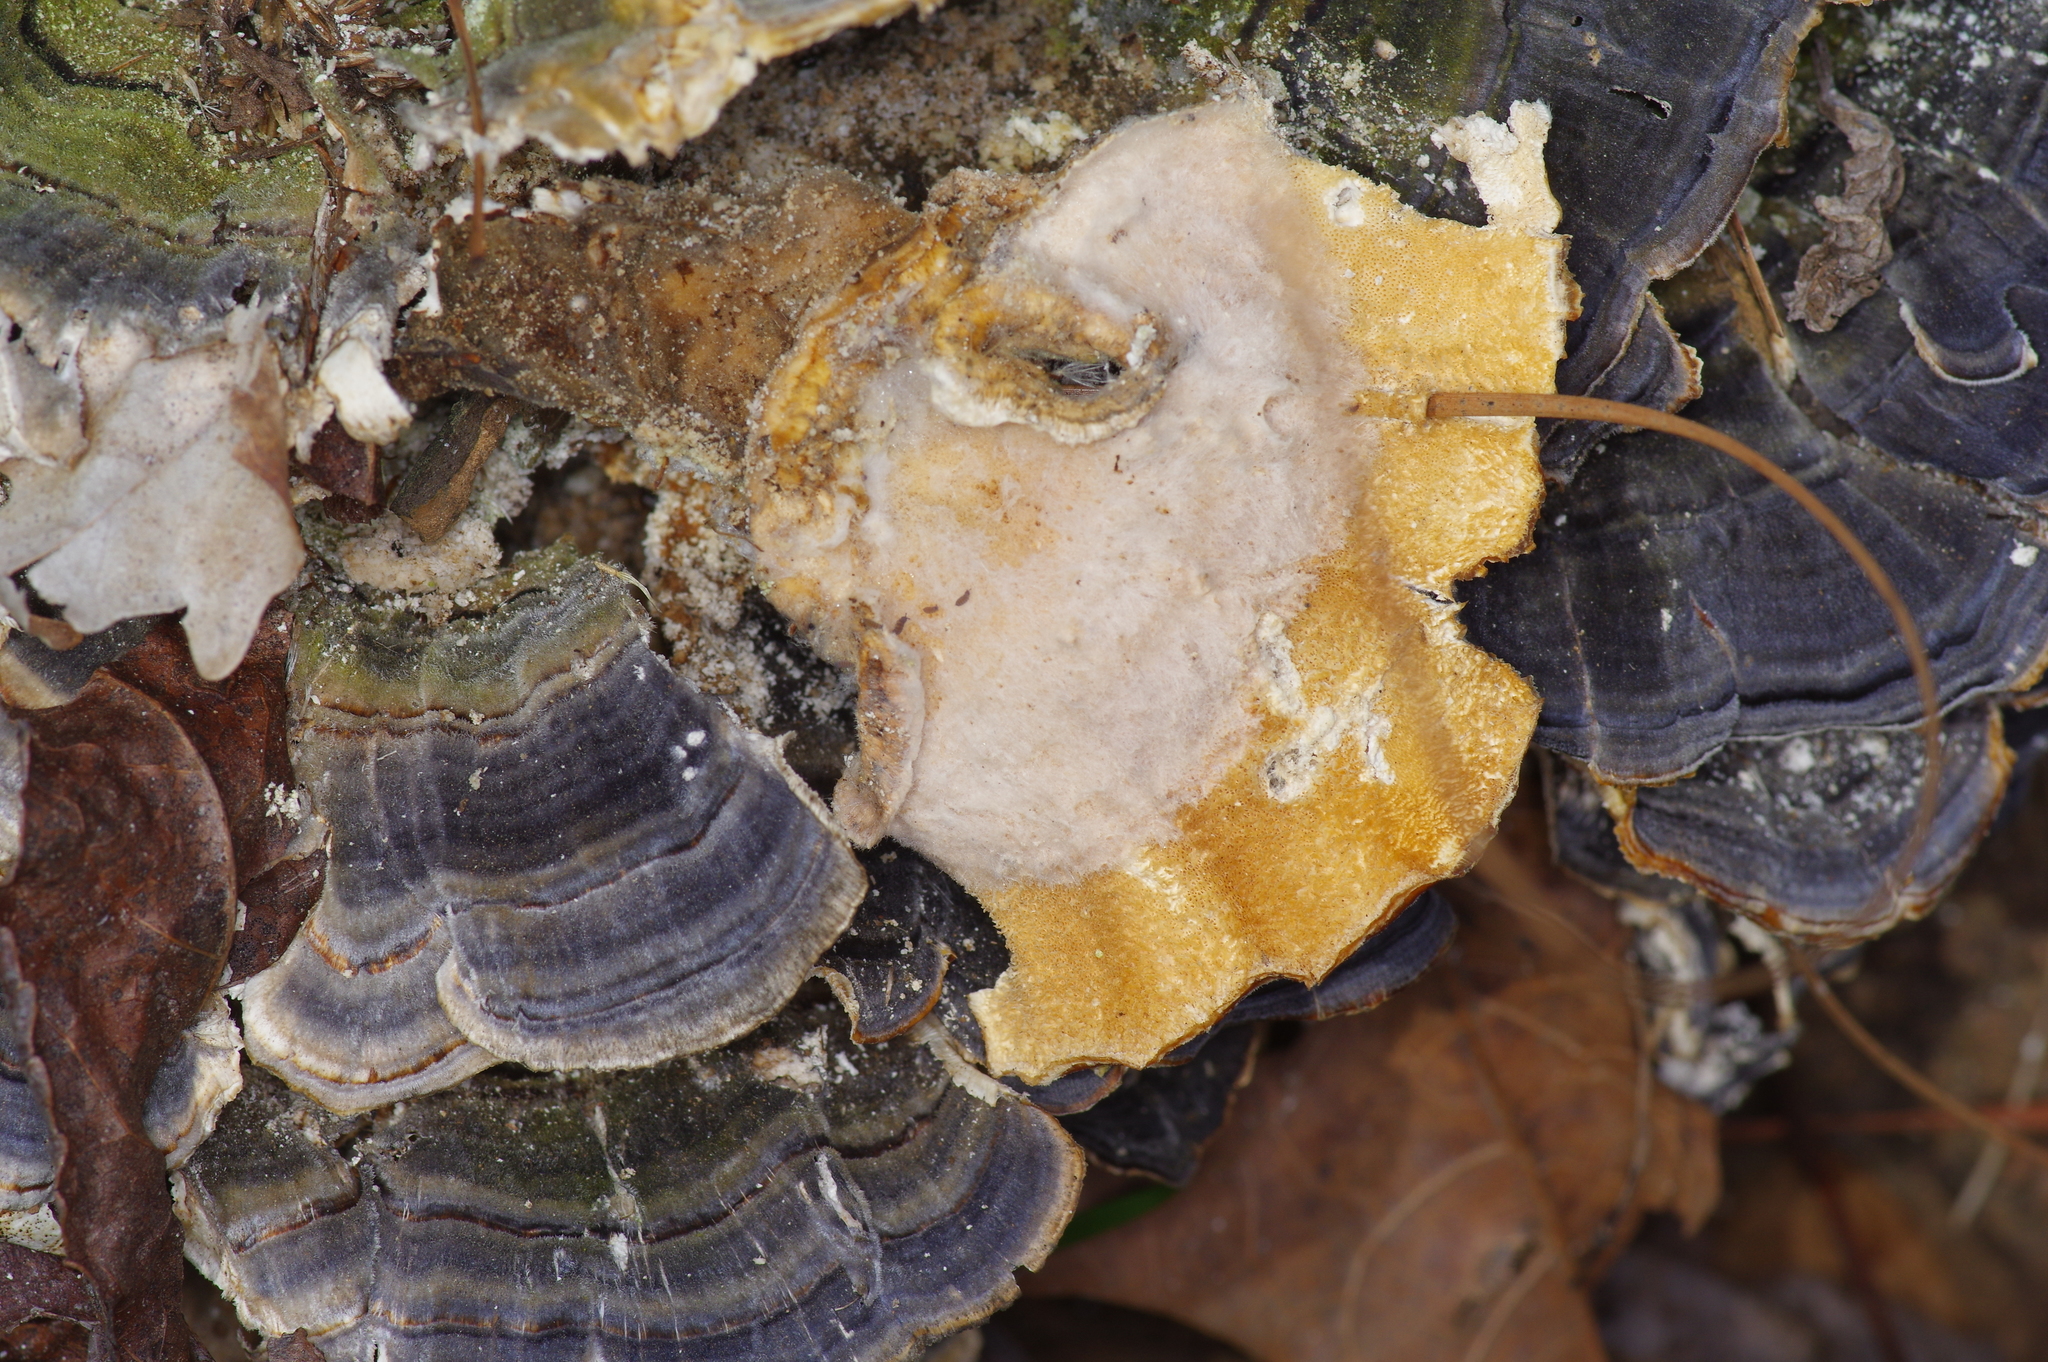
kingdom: Fungi
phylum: Basidiomycota
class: Agaricomycetes
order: Polyporales
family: Polyporaceae
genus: Trametes
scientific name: Trametes versicolor
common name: Turkeytail
